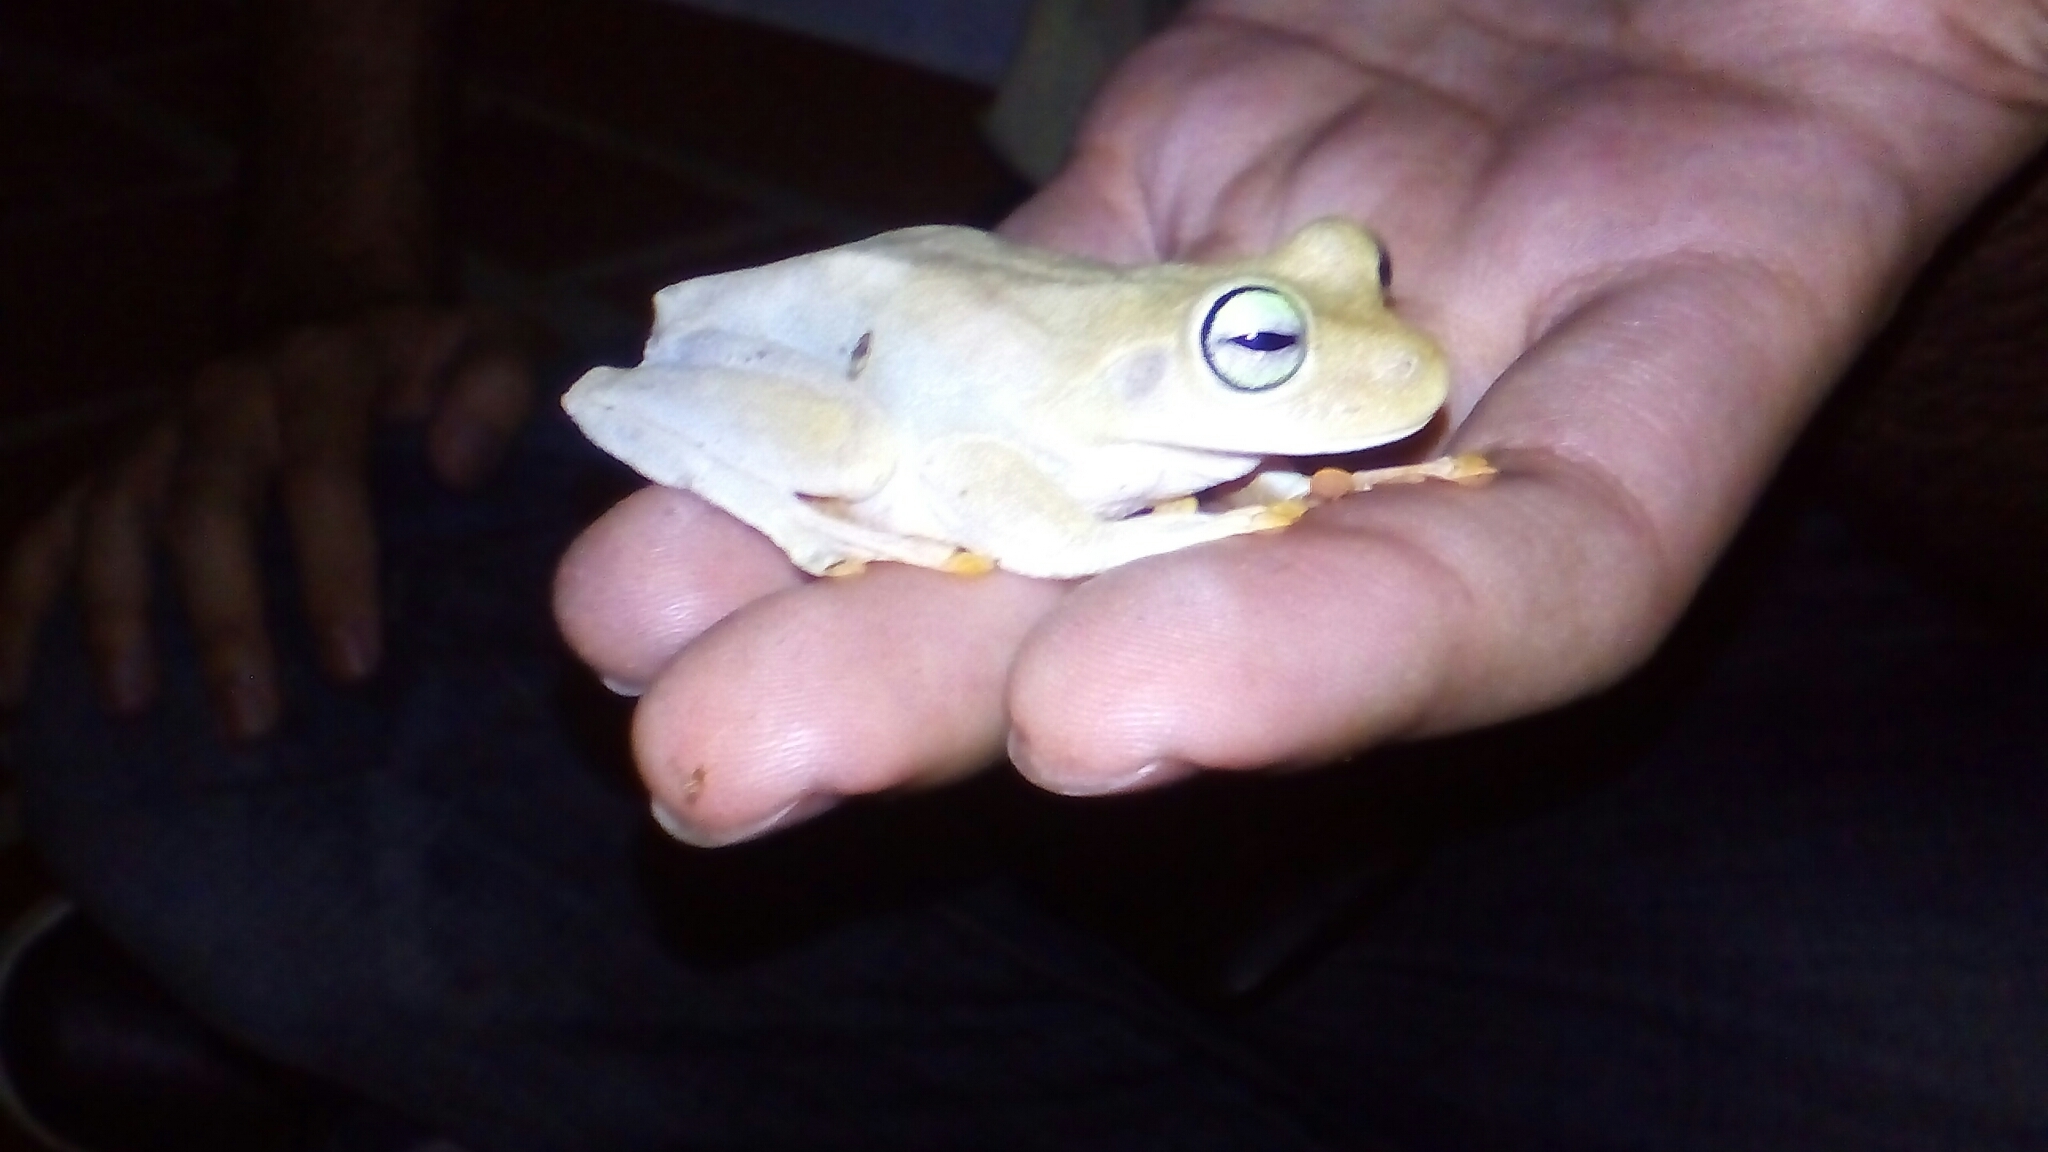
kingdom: Animalia
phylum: Chordata
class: Amphibia
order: Anura
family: Hylidae
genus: Boana
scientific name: Boana platanera
